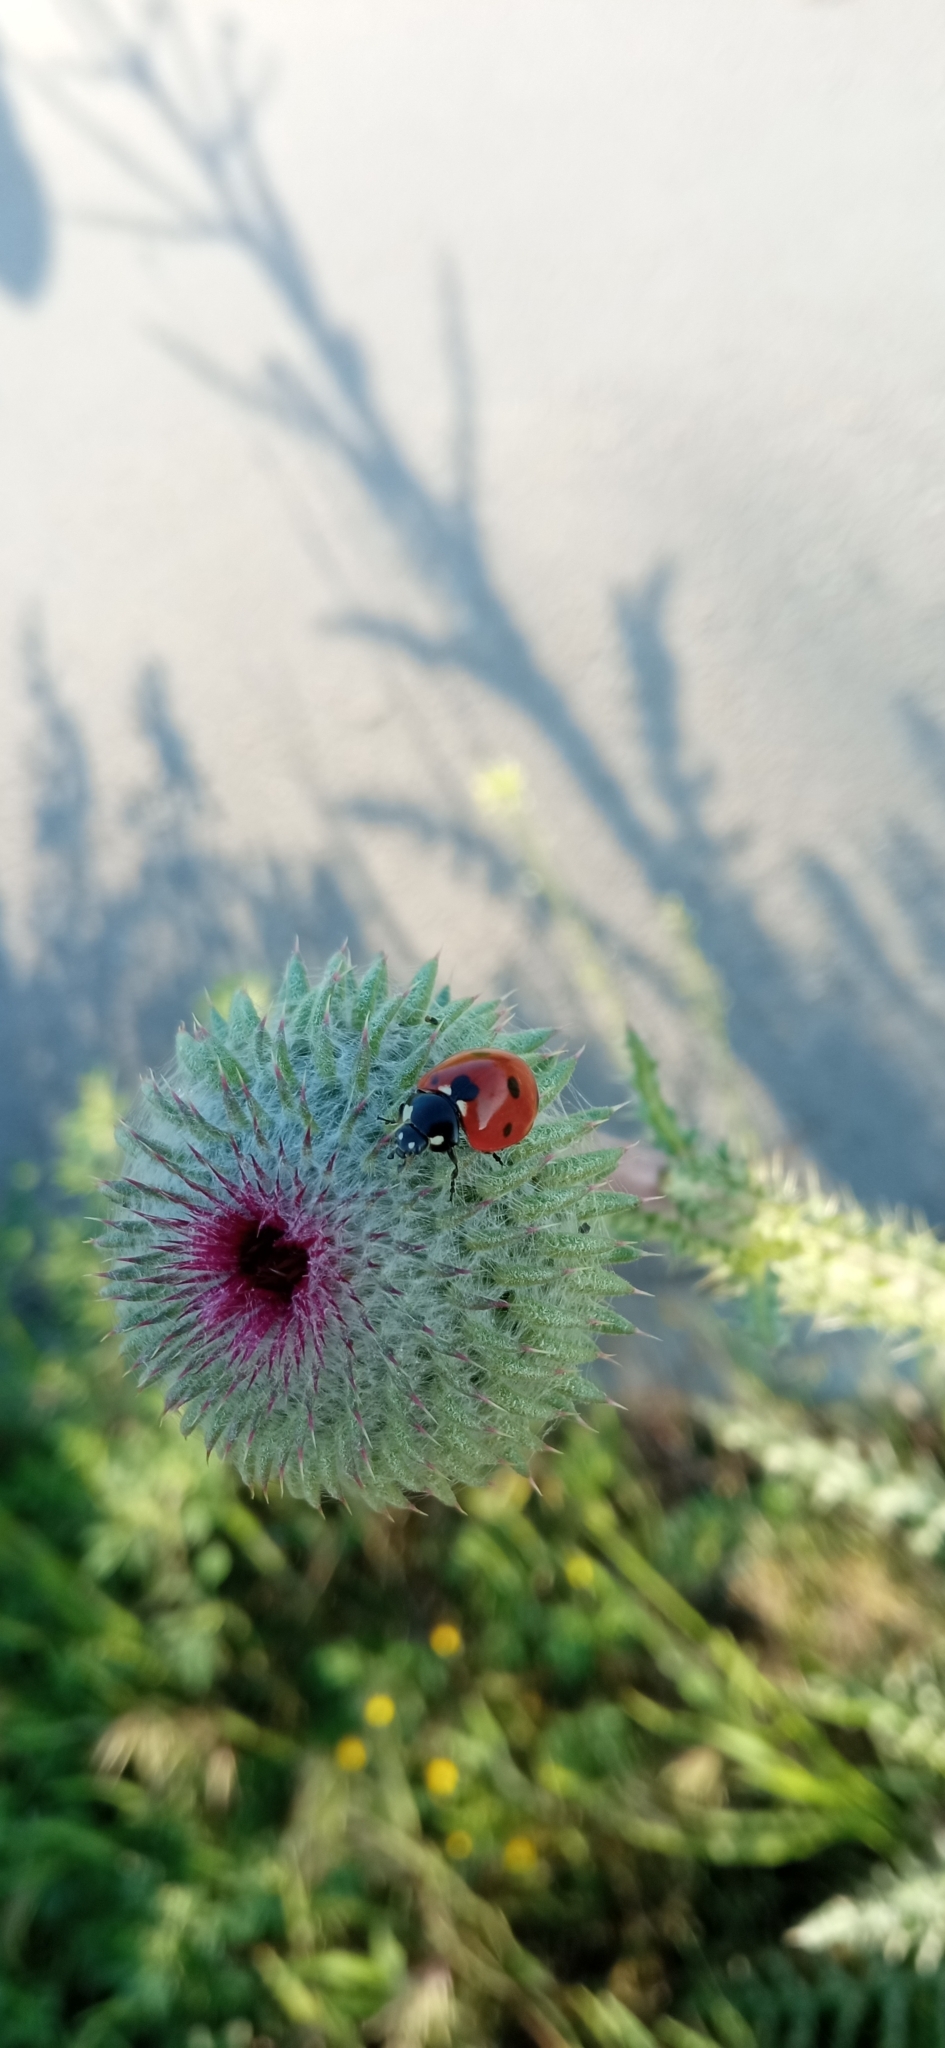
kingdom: Animalia
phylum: Arthropoda
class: Insecta
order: Coleoptera
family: Coccinellidae
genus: Coccinella
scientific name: Coccinella septempunctata
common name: Sevenspotted lady beetle
